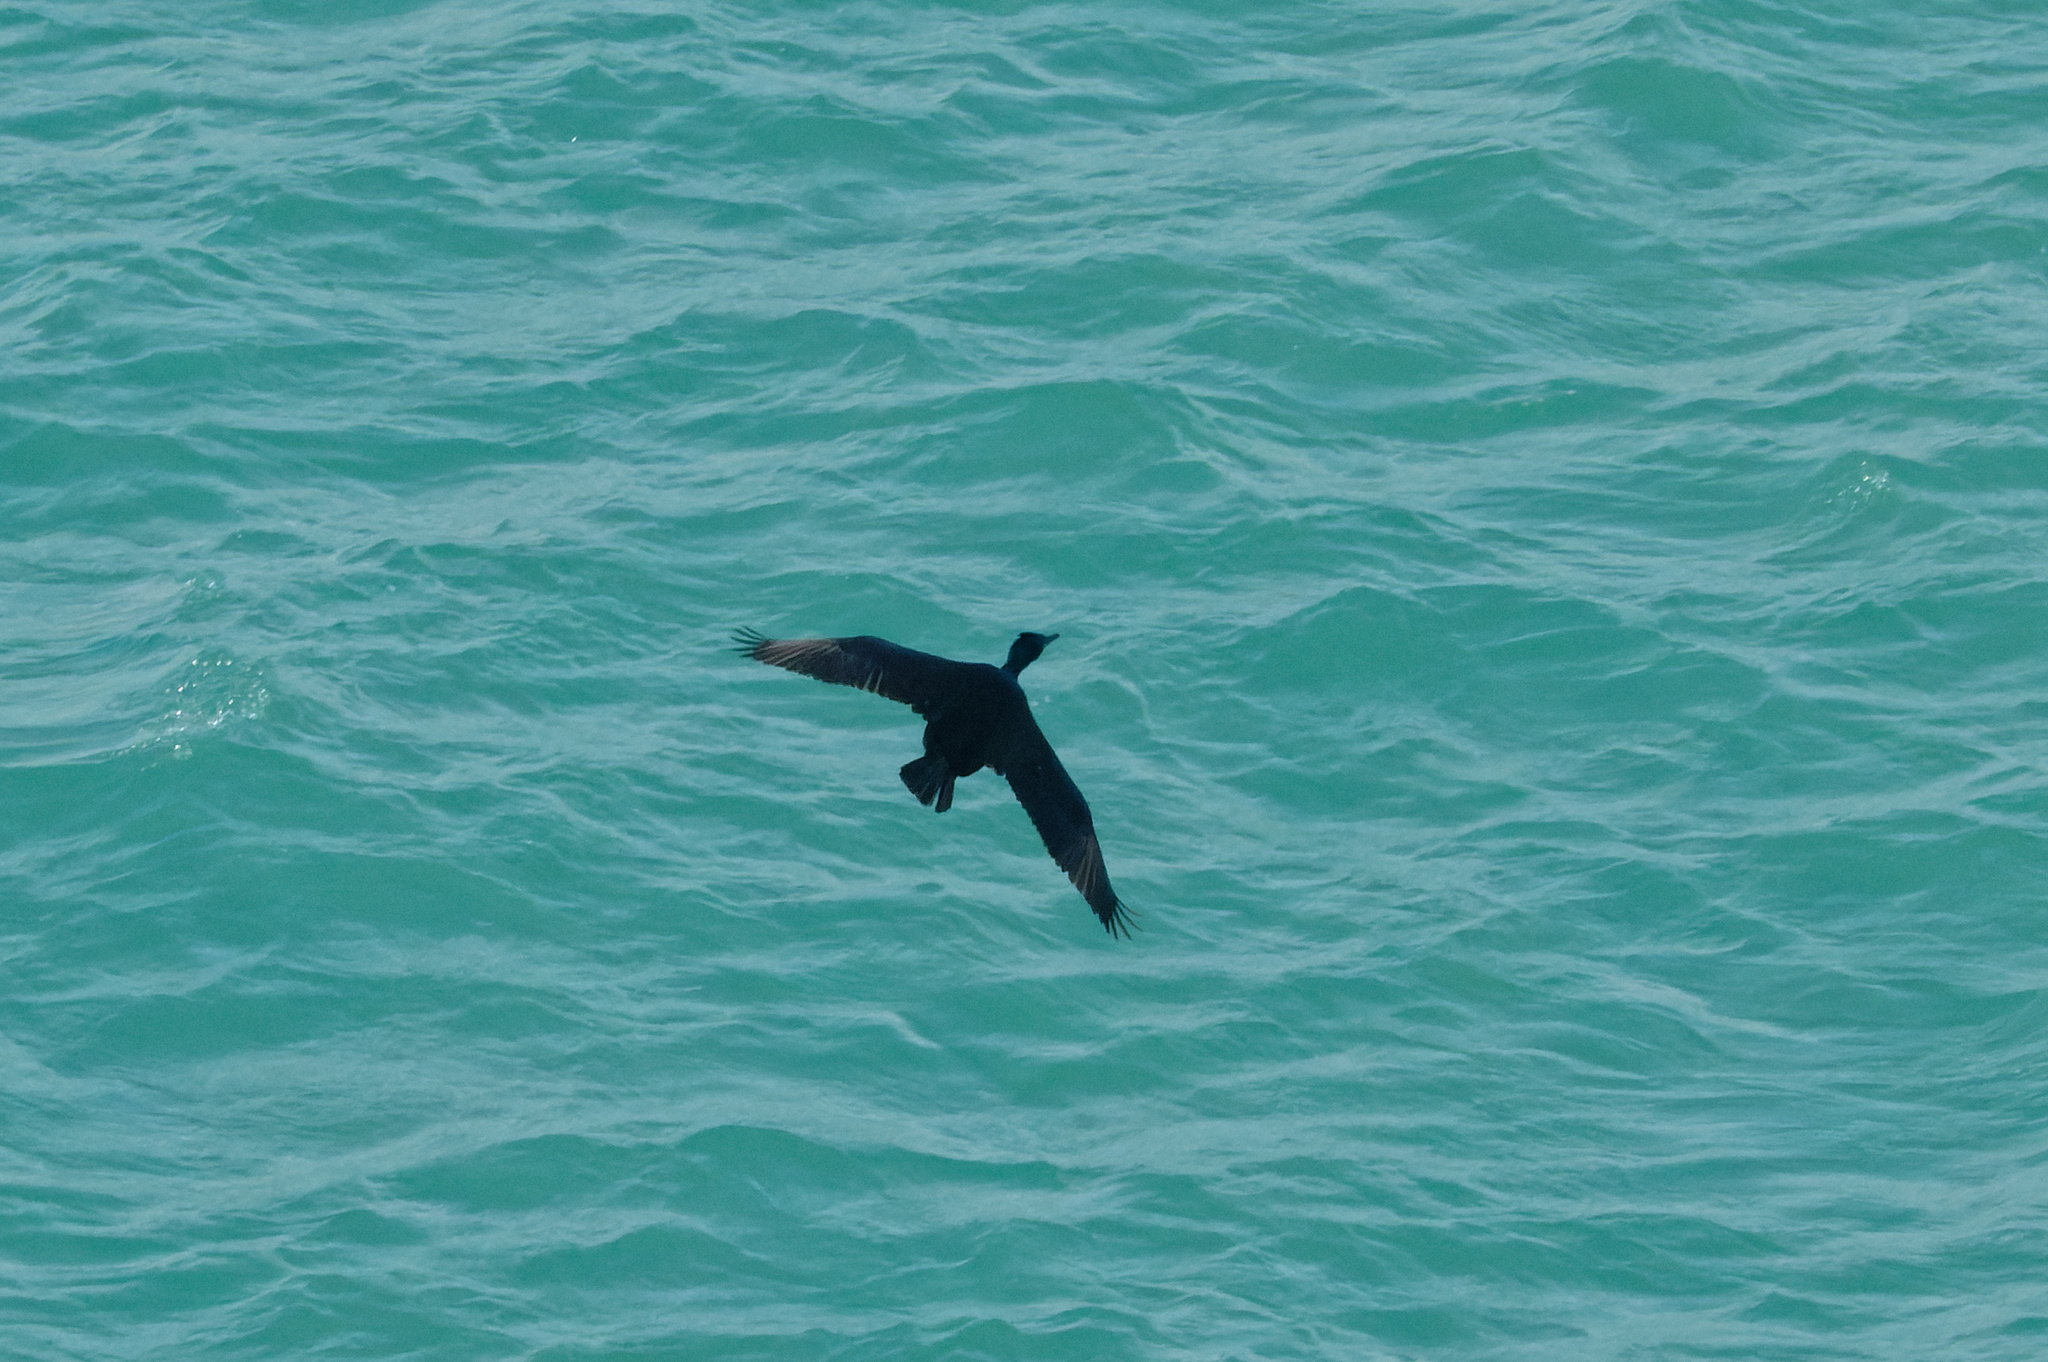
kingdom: Animalia
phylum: Chordata
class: Aves
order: Suliformes
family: Phalacrocoracidae
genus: Phalacrocorax
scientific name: Phalacrocorax aristotelis
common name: European shag
